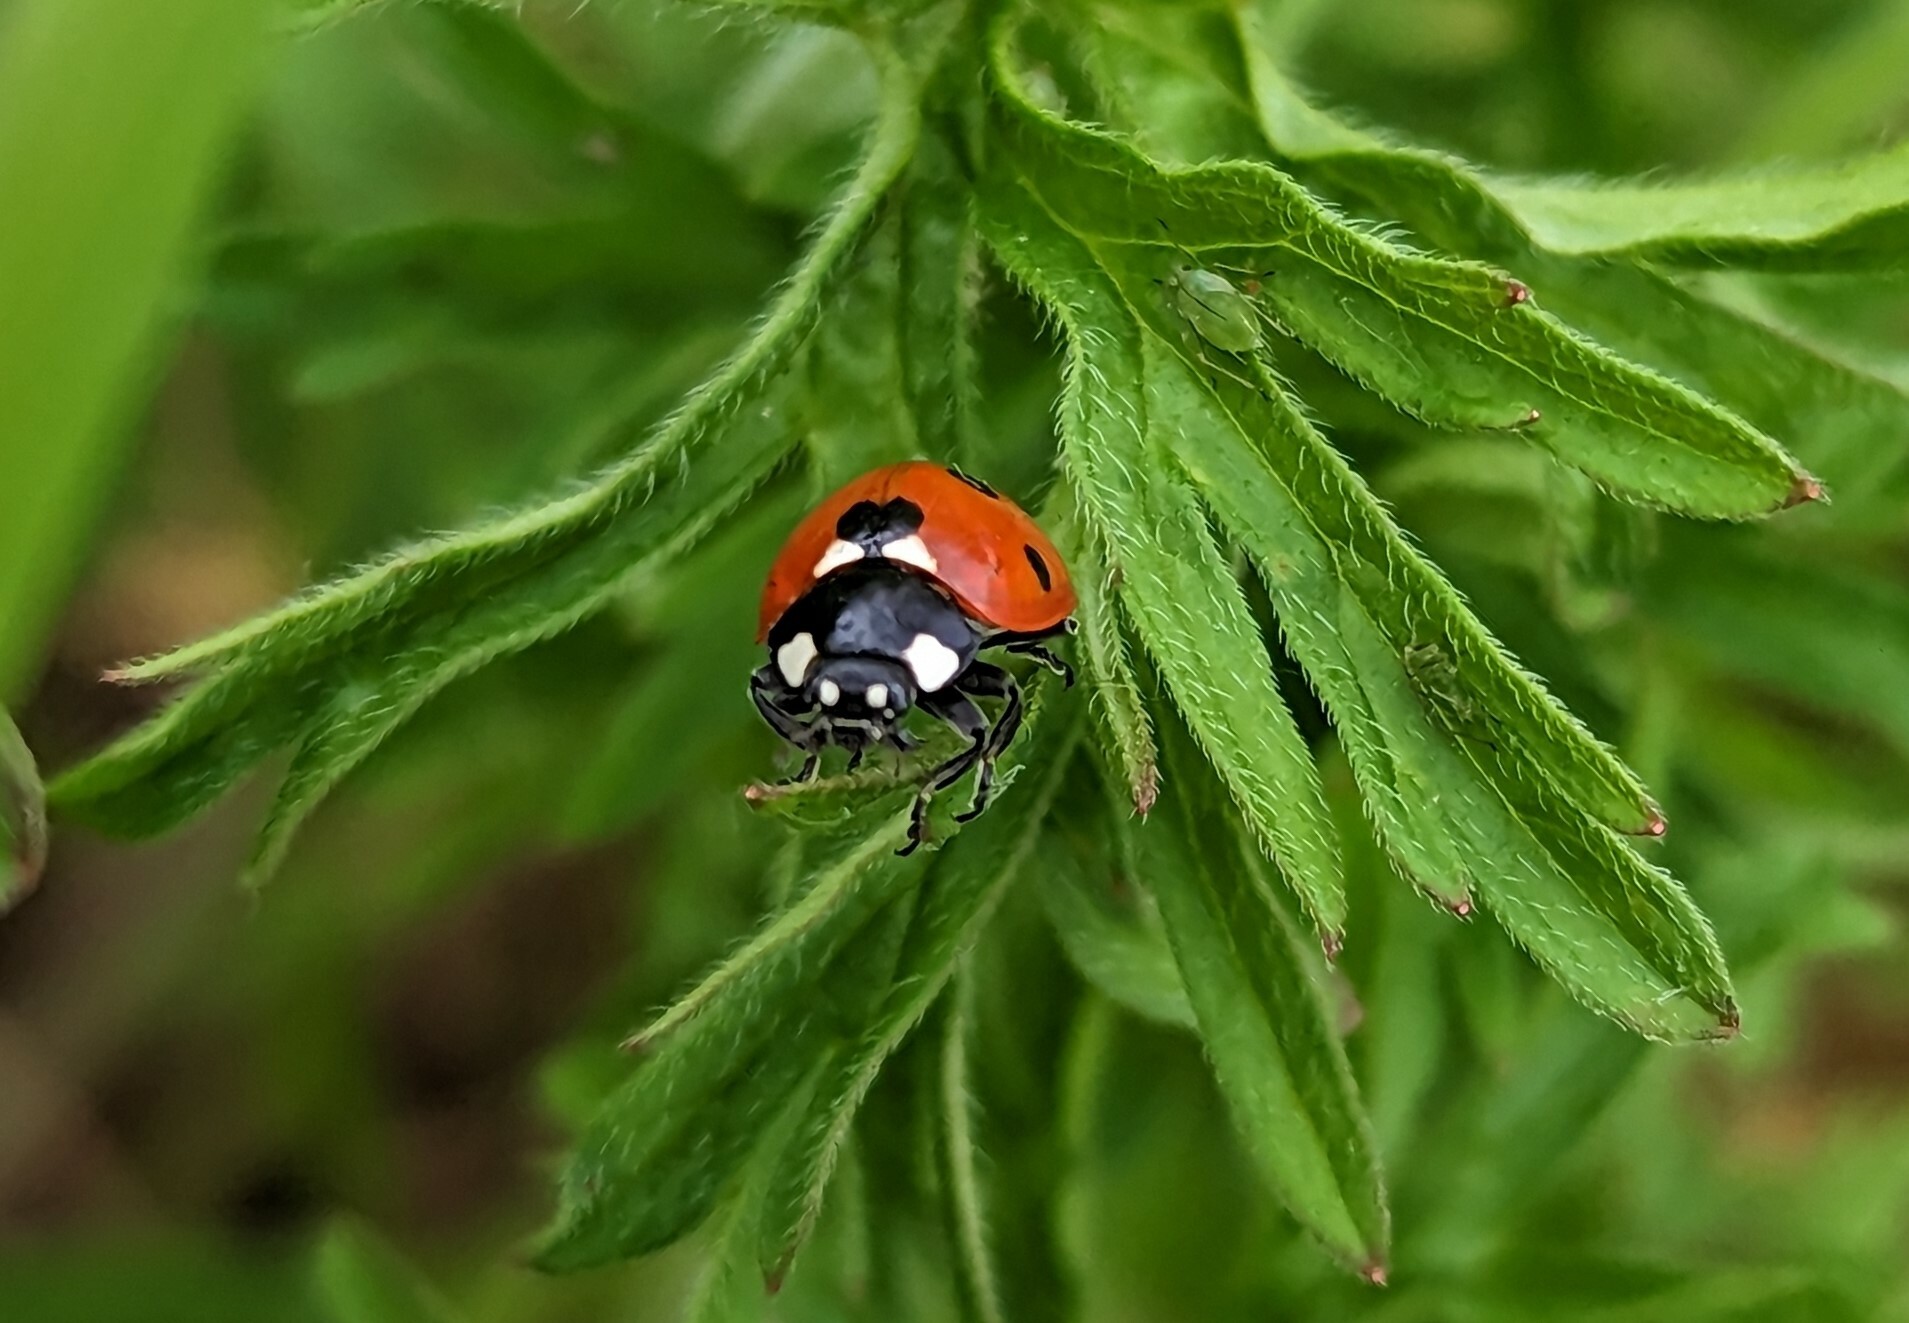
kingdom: Animalia
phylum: Arthropoda
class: Insecta
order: Coleoptera
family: Coccinellidae
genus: Coccinella
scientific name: Coccinella septempunctata
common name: Sevenspotted lady beetle
